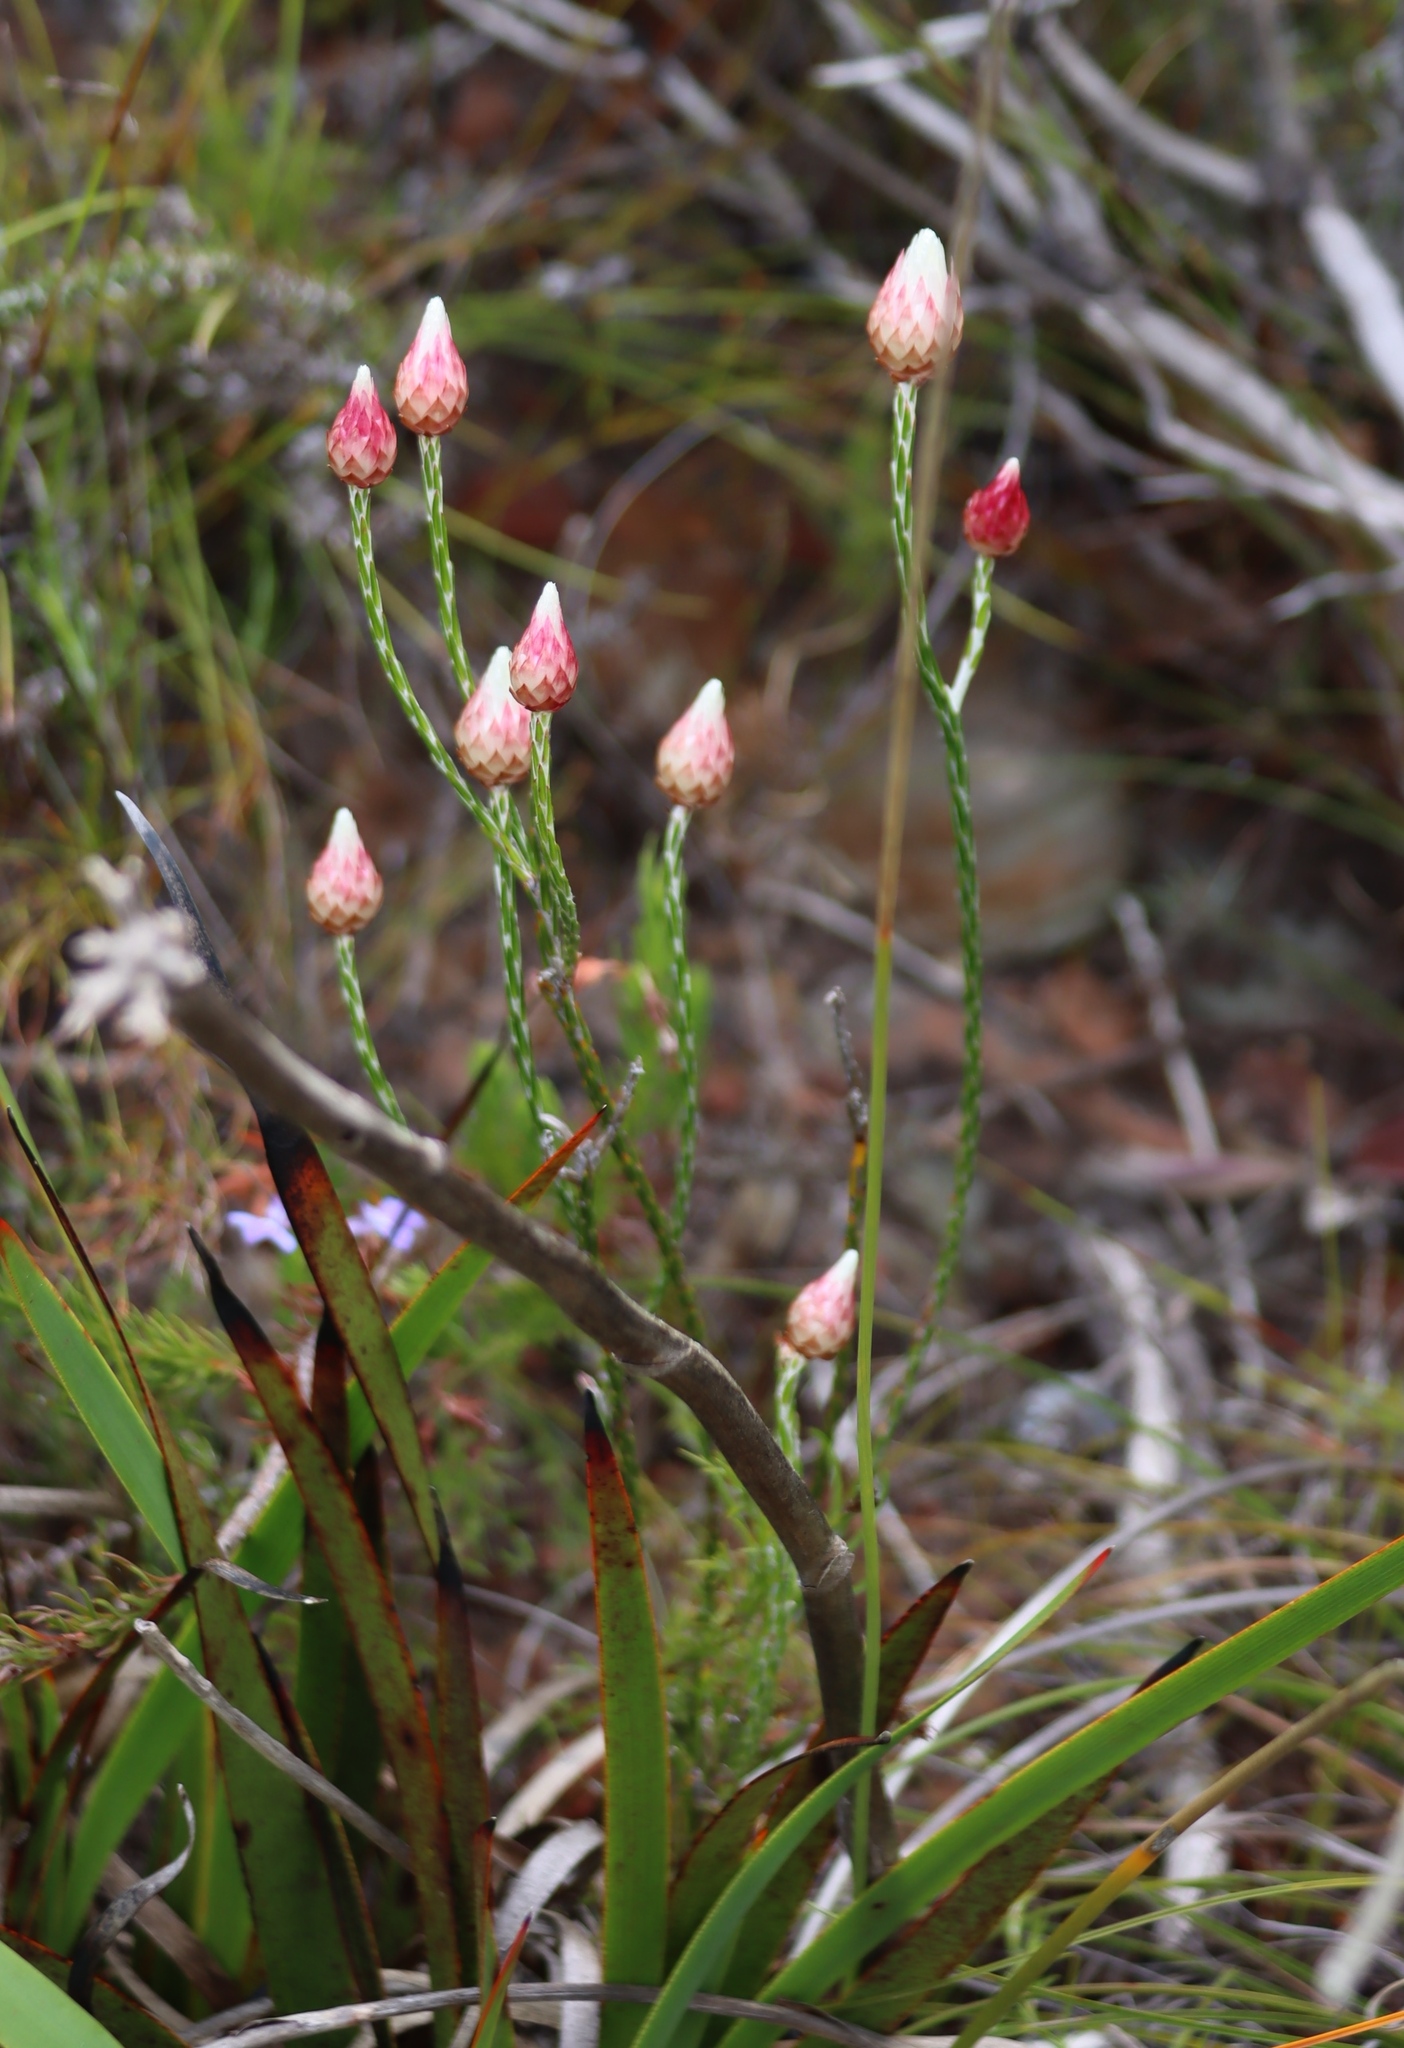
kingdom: Plantae
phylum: Tracheophyta
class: Magnoliopsida
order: Asterales
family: Asteraceae
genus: Edmondia
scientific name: Edmondia sesamoides
